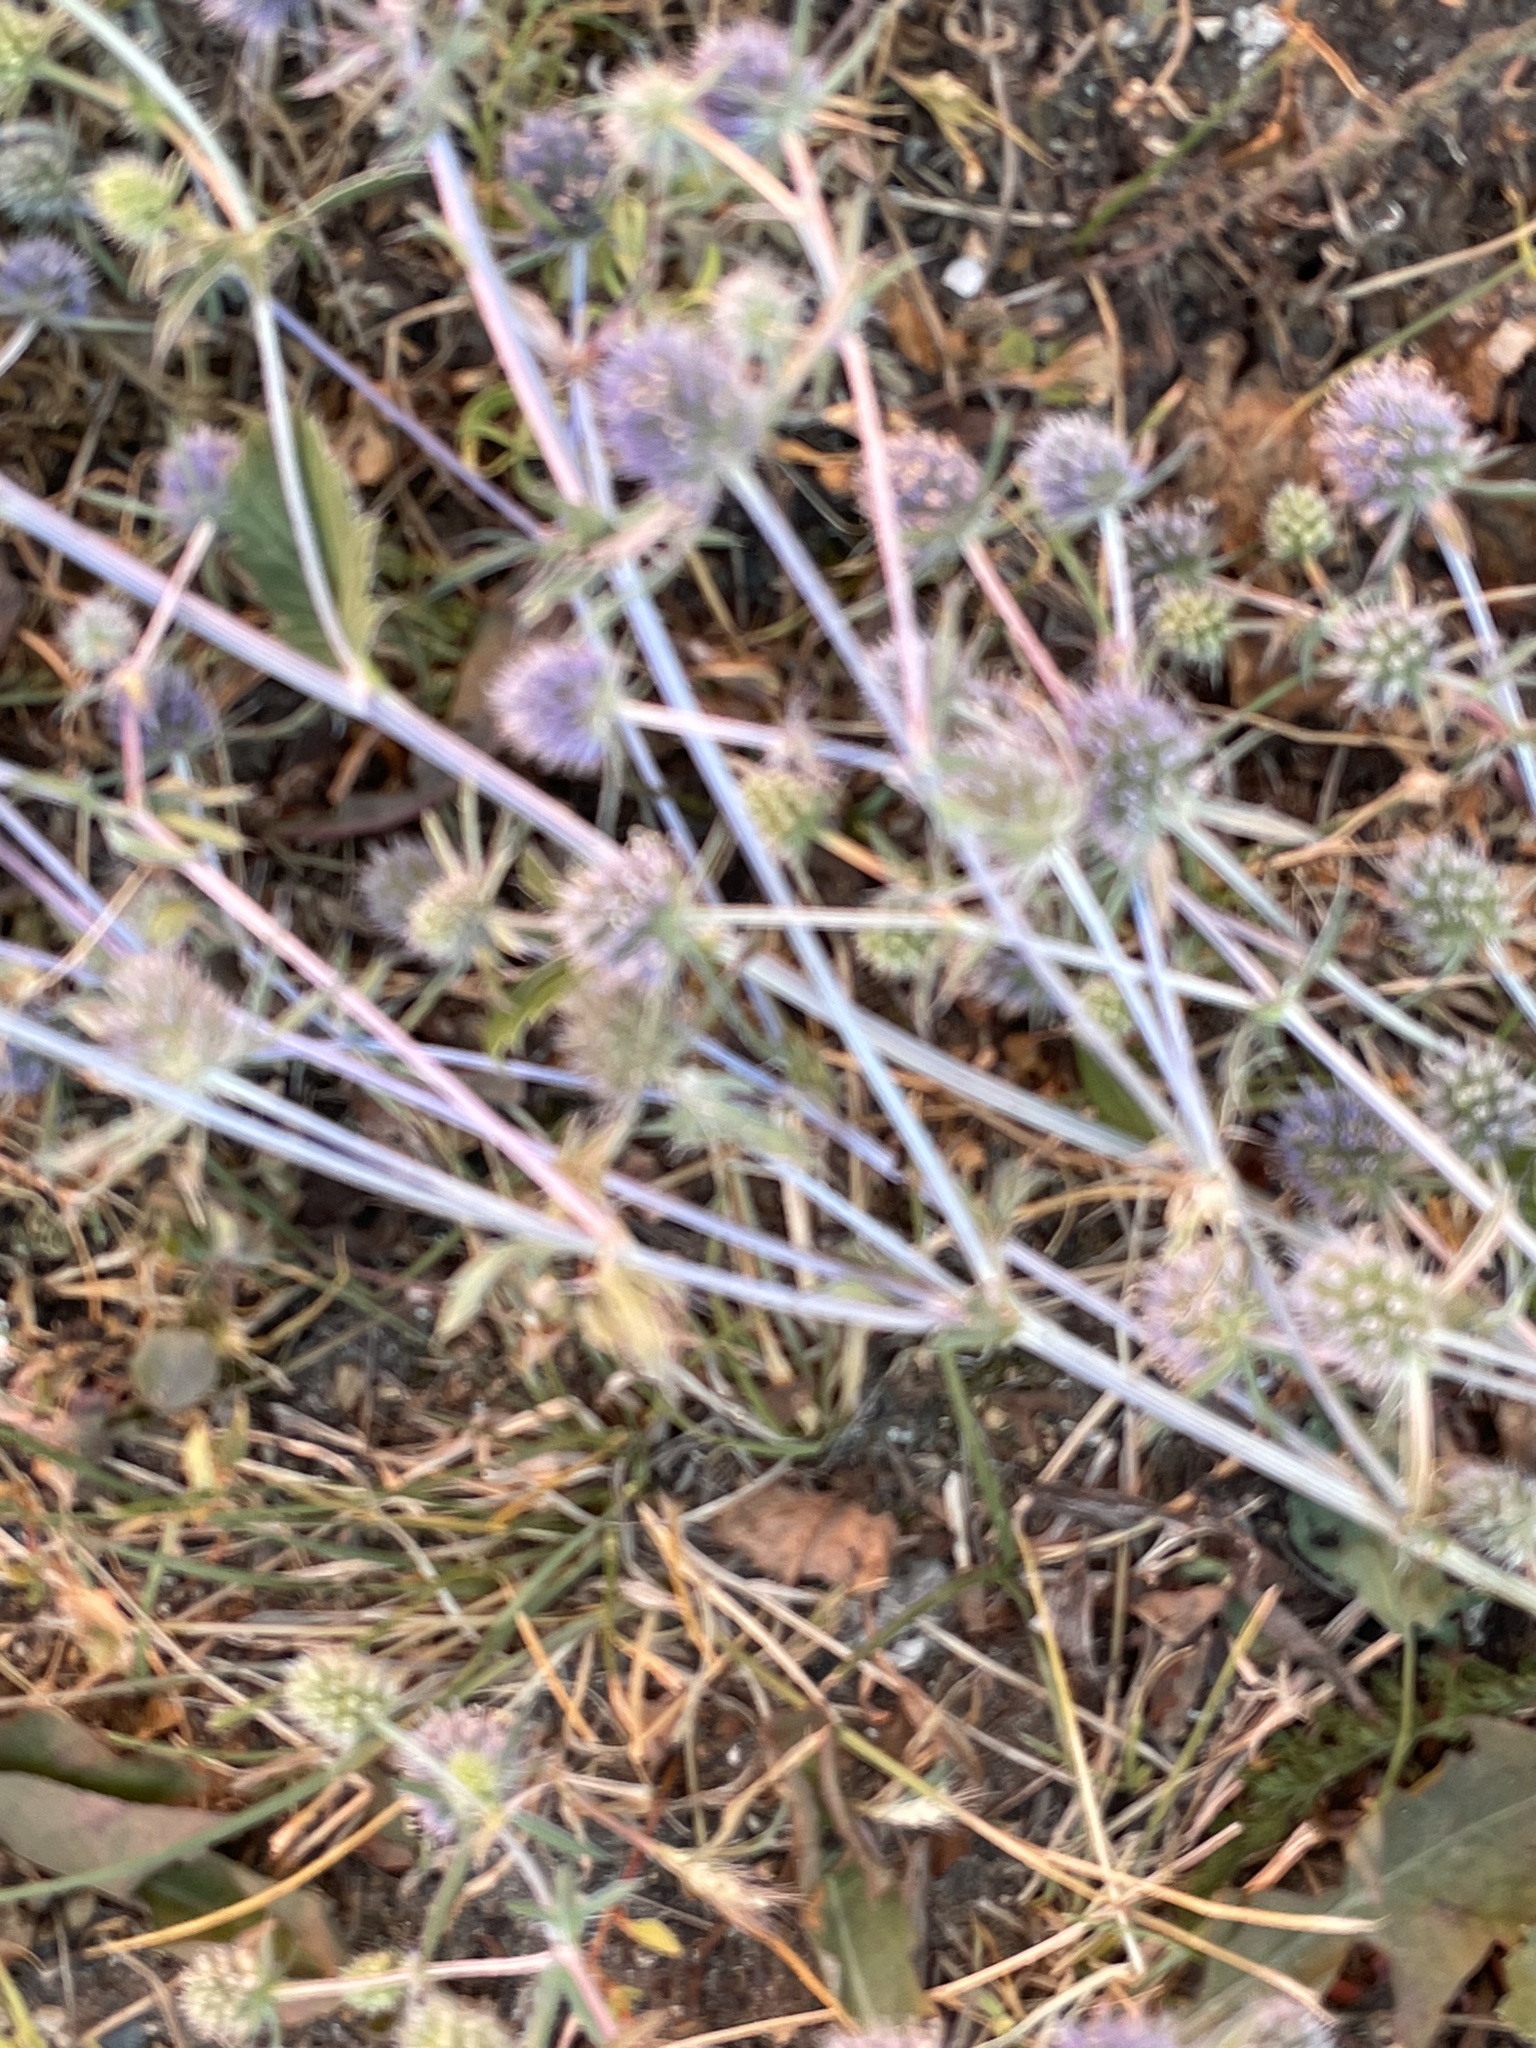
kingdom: Plantae
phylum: Tracheophyta
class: Magnoliopsida
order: Apiales
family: Apiaceae
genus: Eryngium
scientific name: Eryngium planum
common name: Blue eryngo
